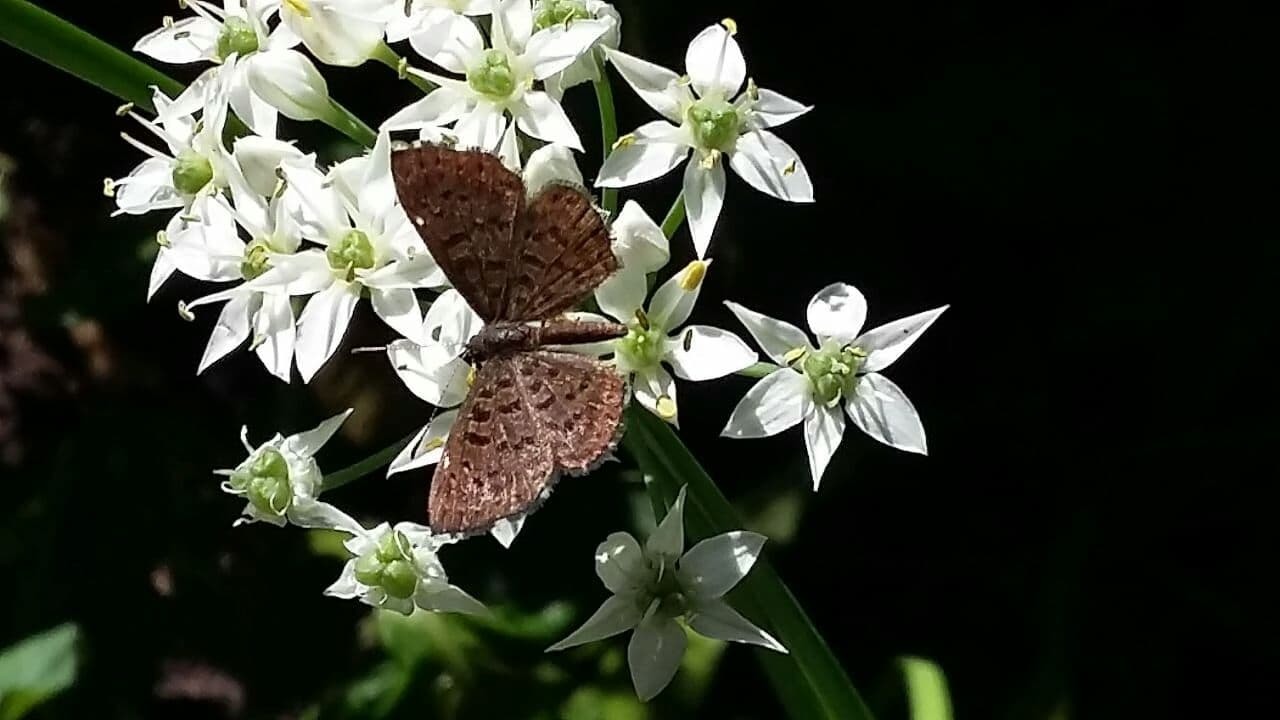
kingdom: Animalia
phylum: Arthropoda
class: Insecta
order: Lepidoptera
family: Riodinidae
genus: Teenie
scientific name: Teenie tinea
